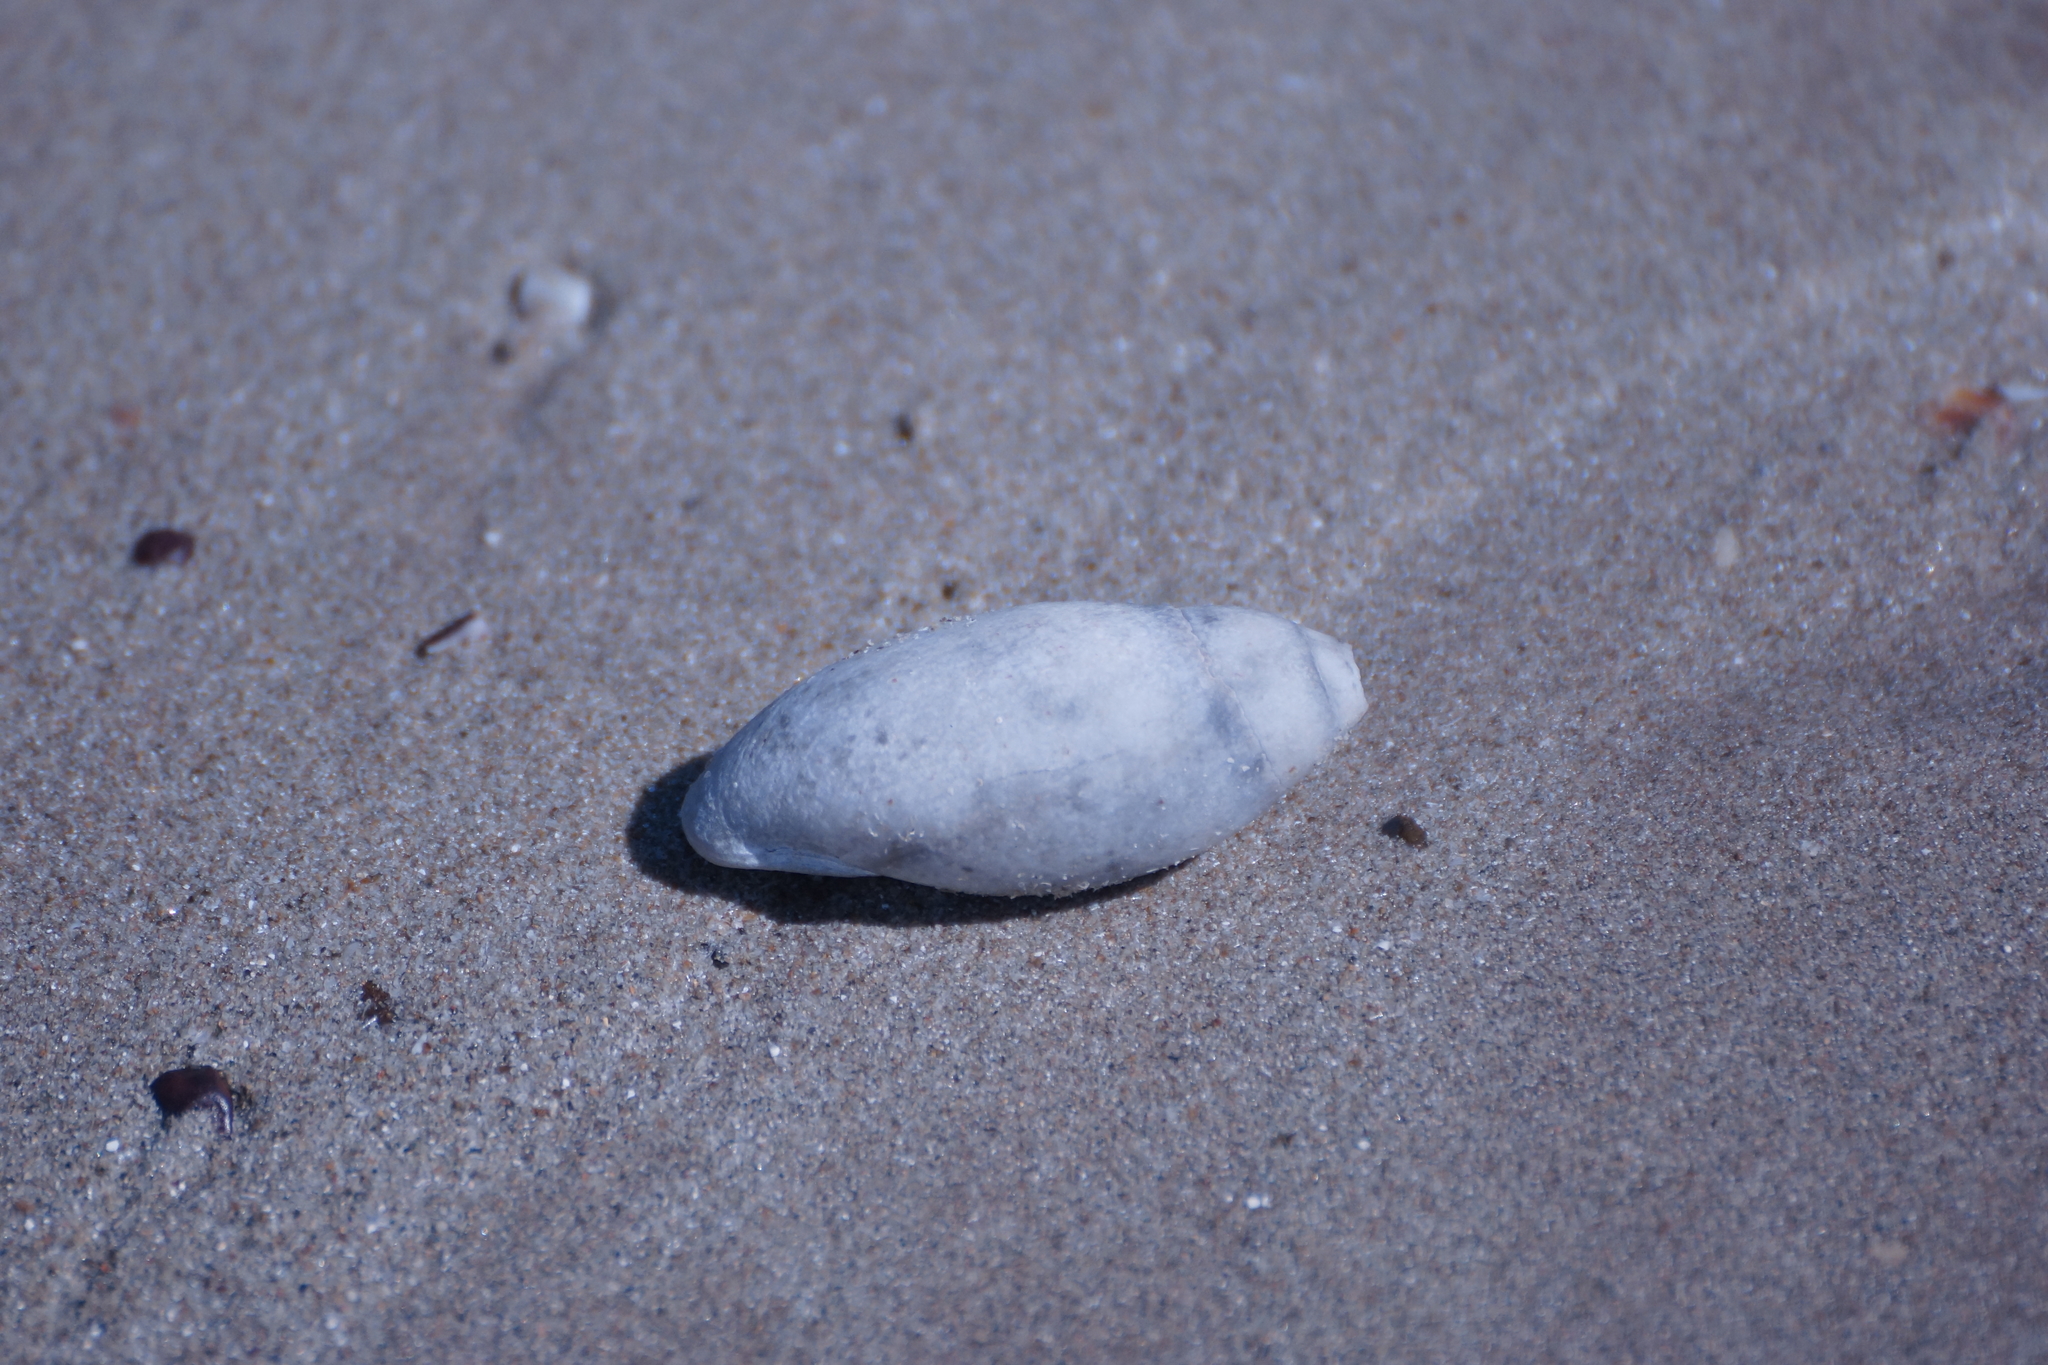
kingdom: Animalia
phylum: Mollusca
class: Gastropoda
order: Ellobiida
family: Ellobiidae
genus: Ellobium
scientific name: Ellobium aurisjudae
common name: Judas ear cassidula
